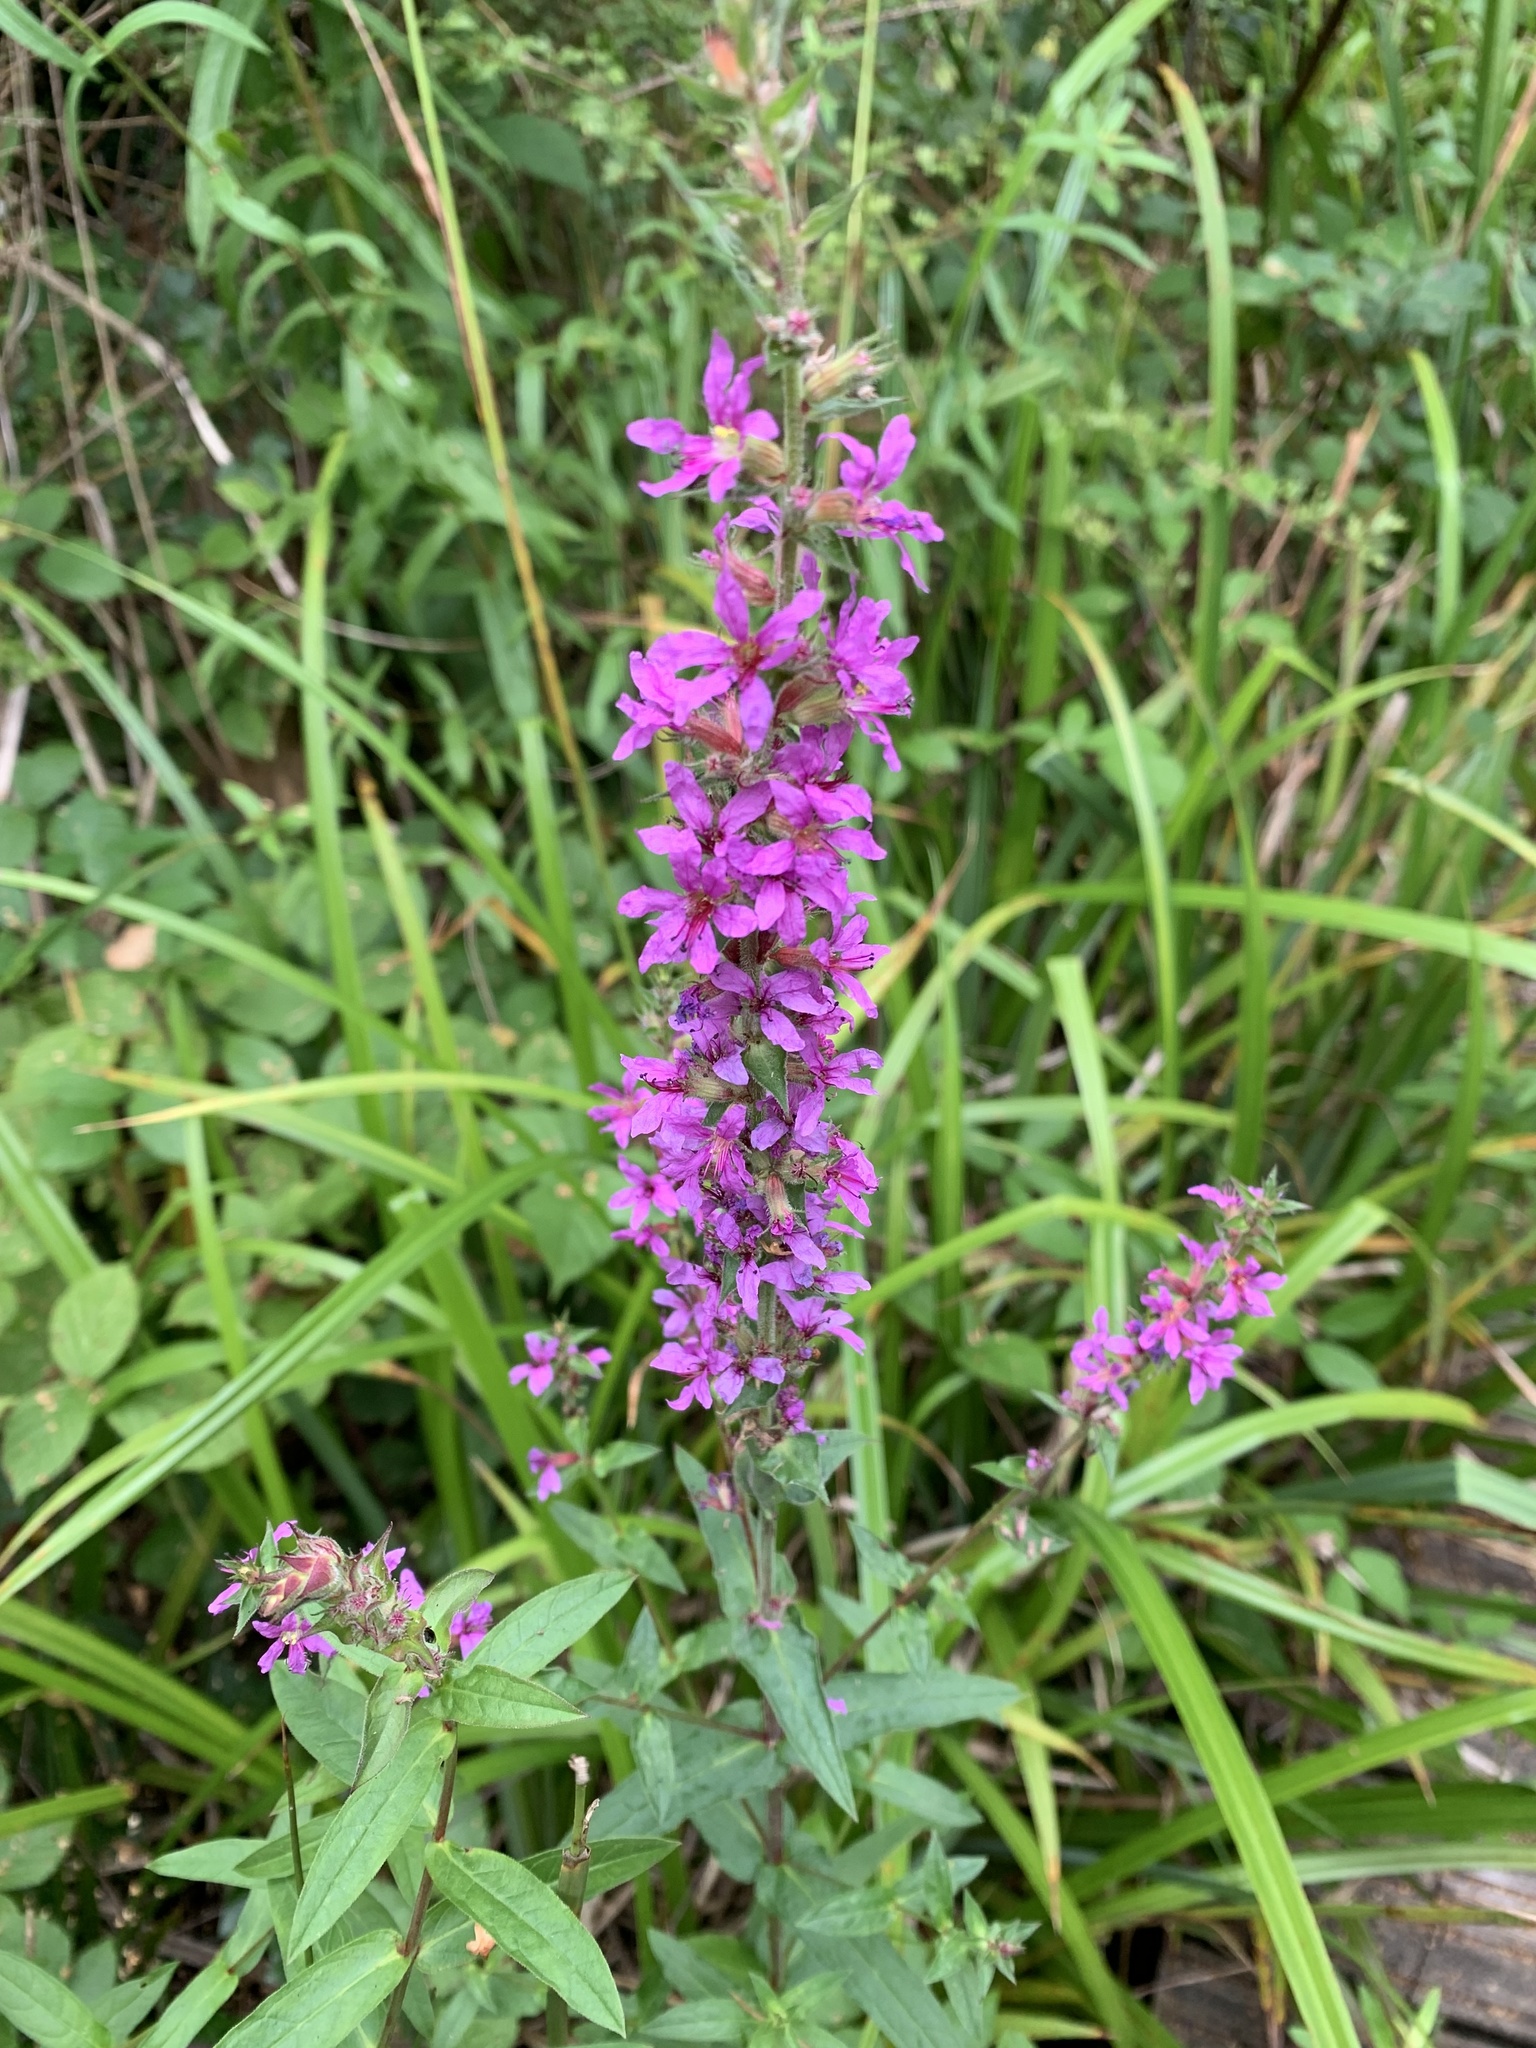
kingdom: Plantae
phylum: Tracheophyta
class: Magnoliopsida
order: Myrtales
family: Lythraceae
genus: Lythrum
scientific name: Lythrum salicaria
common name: Purple loosestrife
